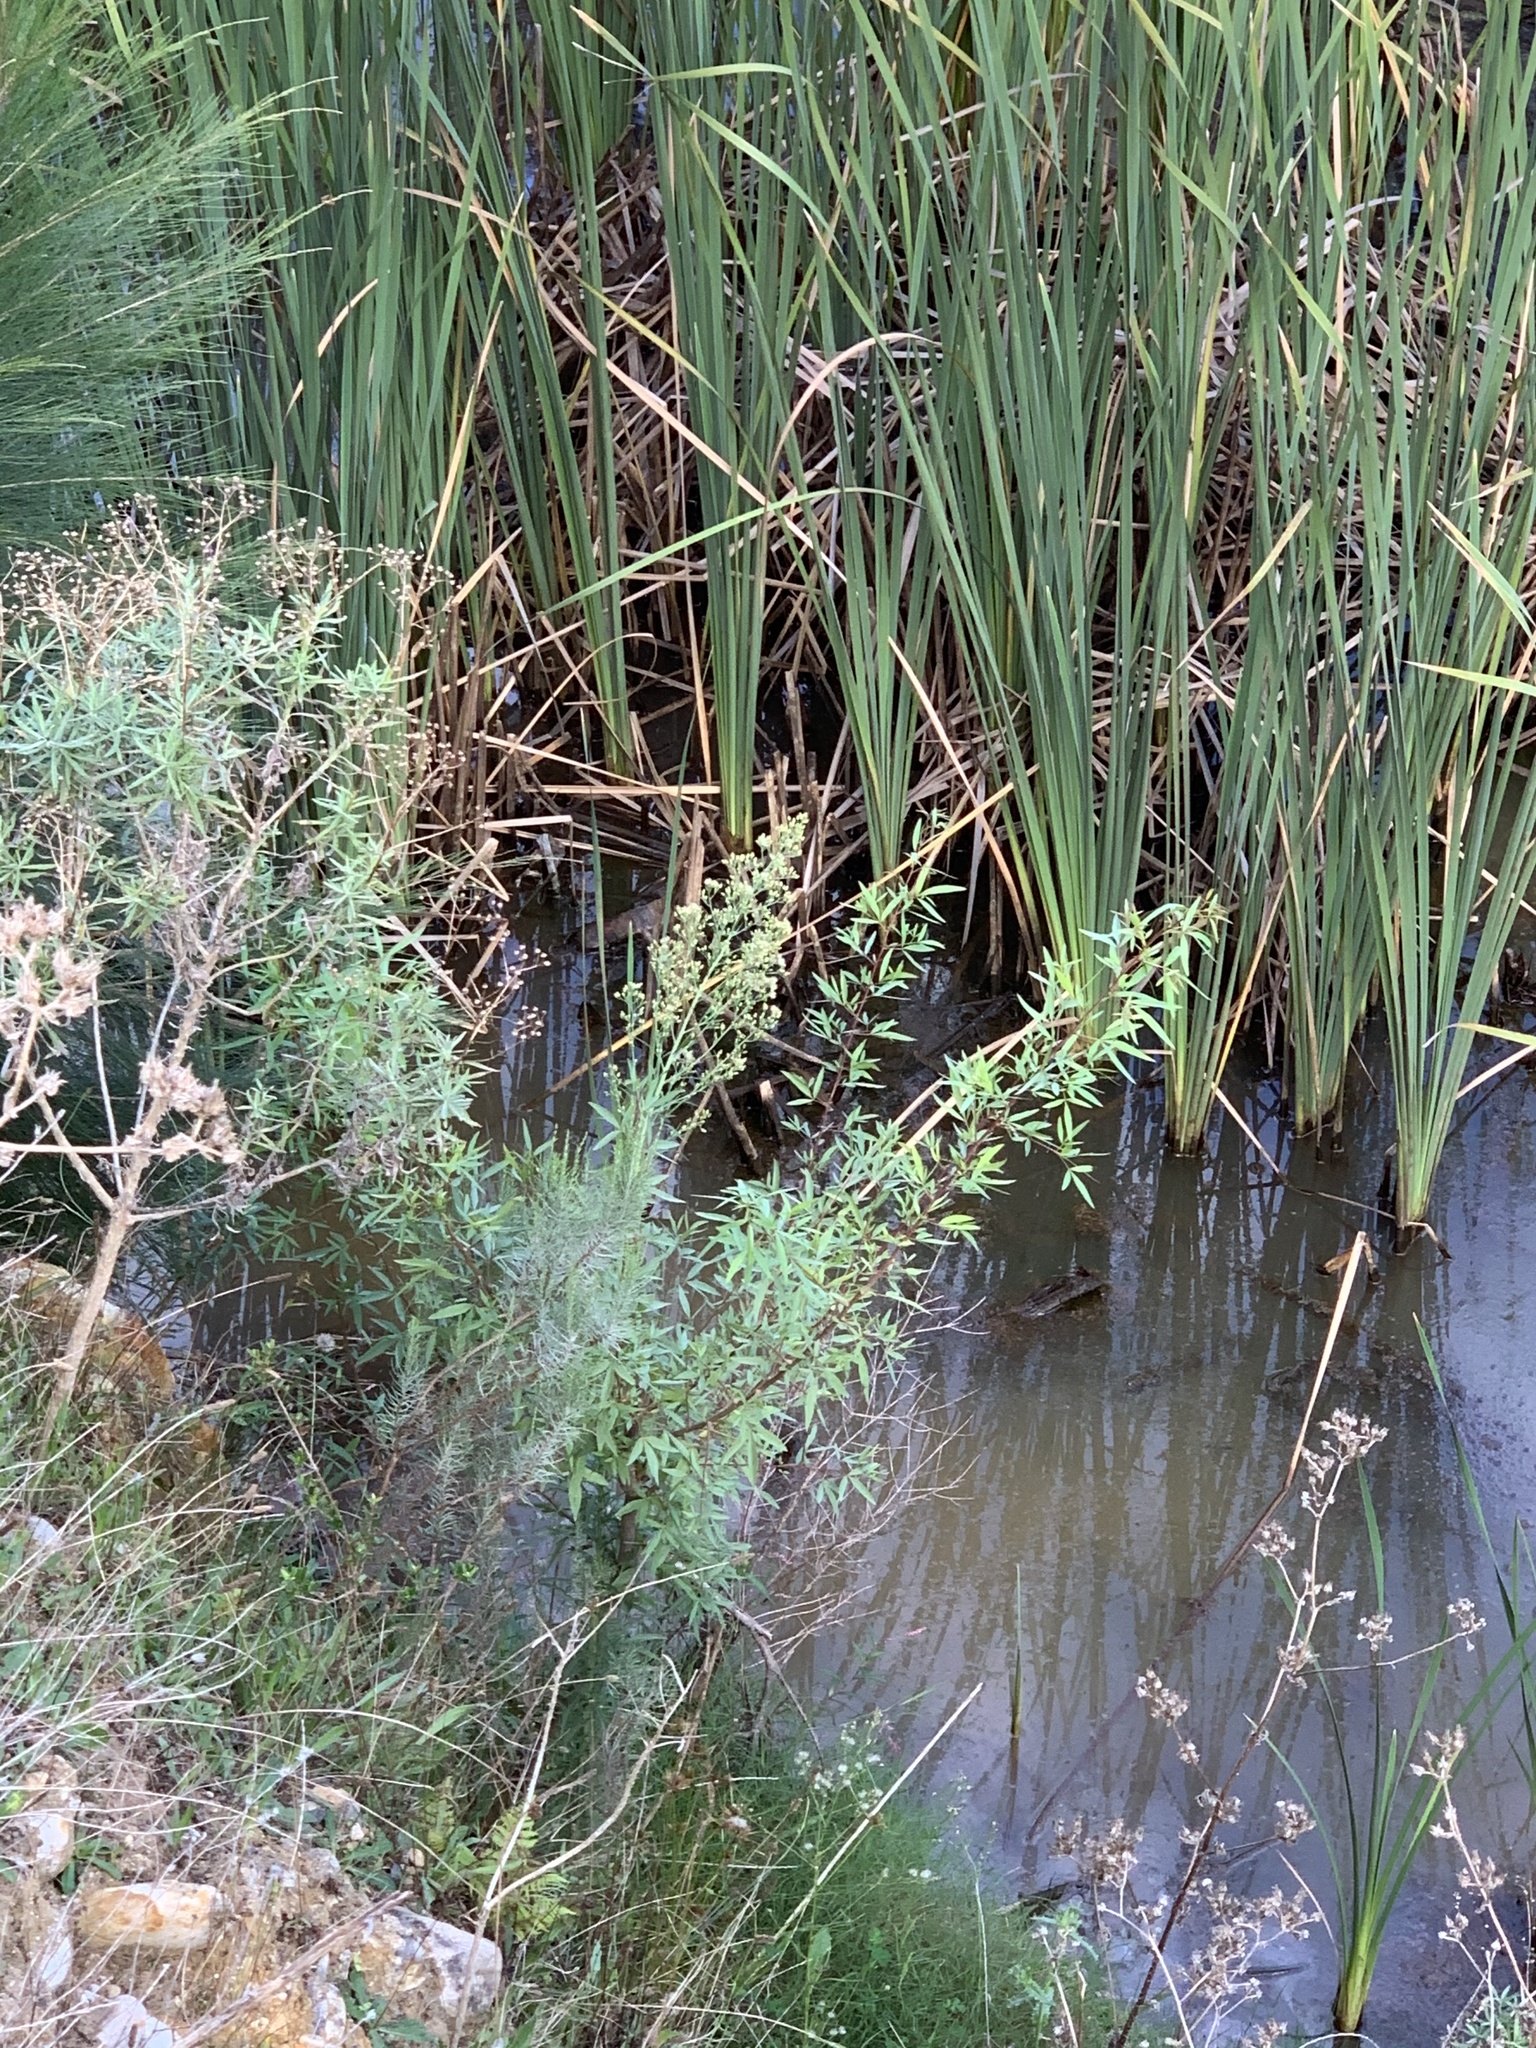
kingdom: Plantae
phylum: Tracheophyta
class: Magnoliopsida
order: Sapindales
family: Anacardiaceae
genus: Searsia
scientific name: Searsia pendulina
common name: White karee
